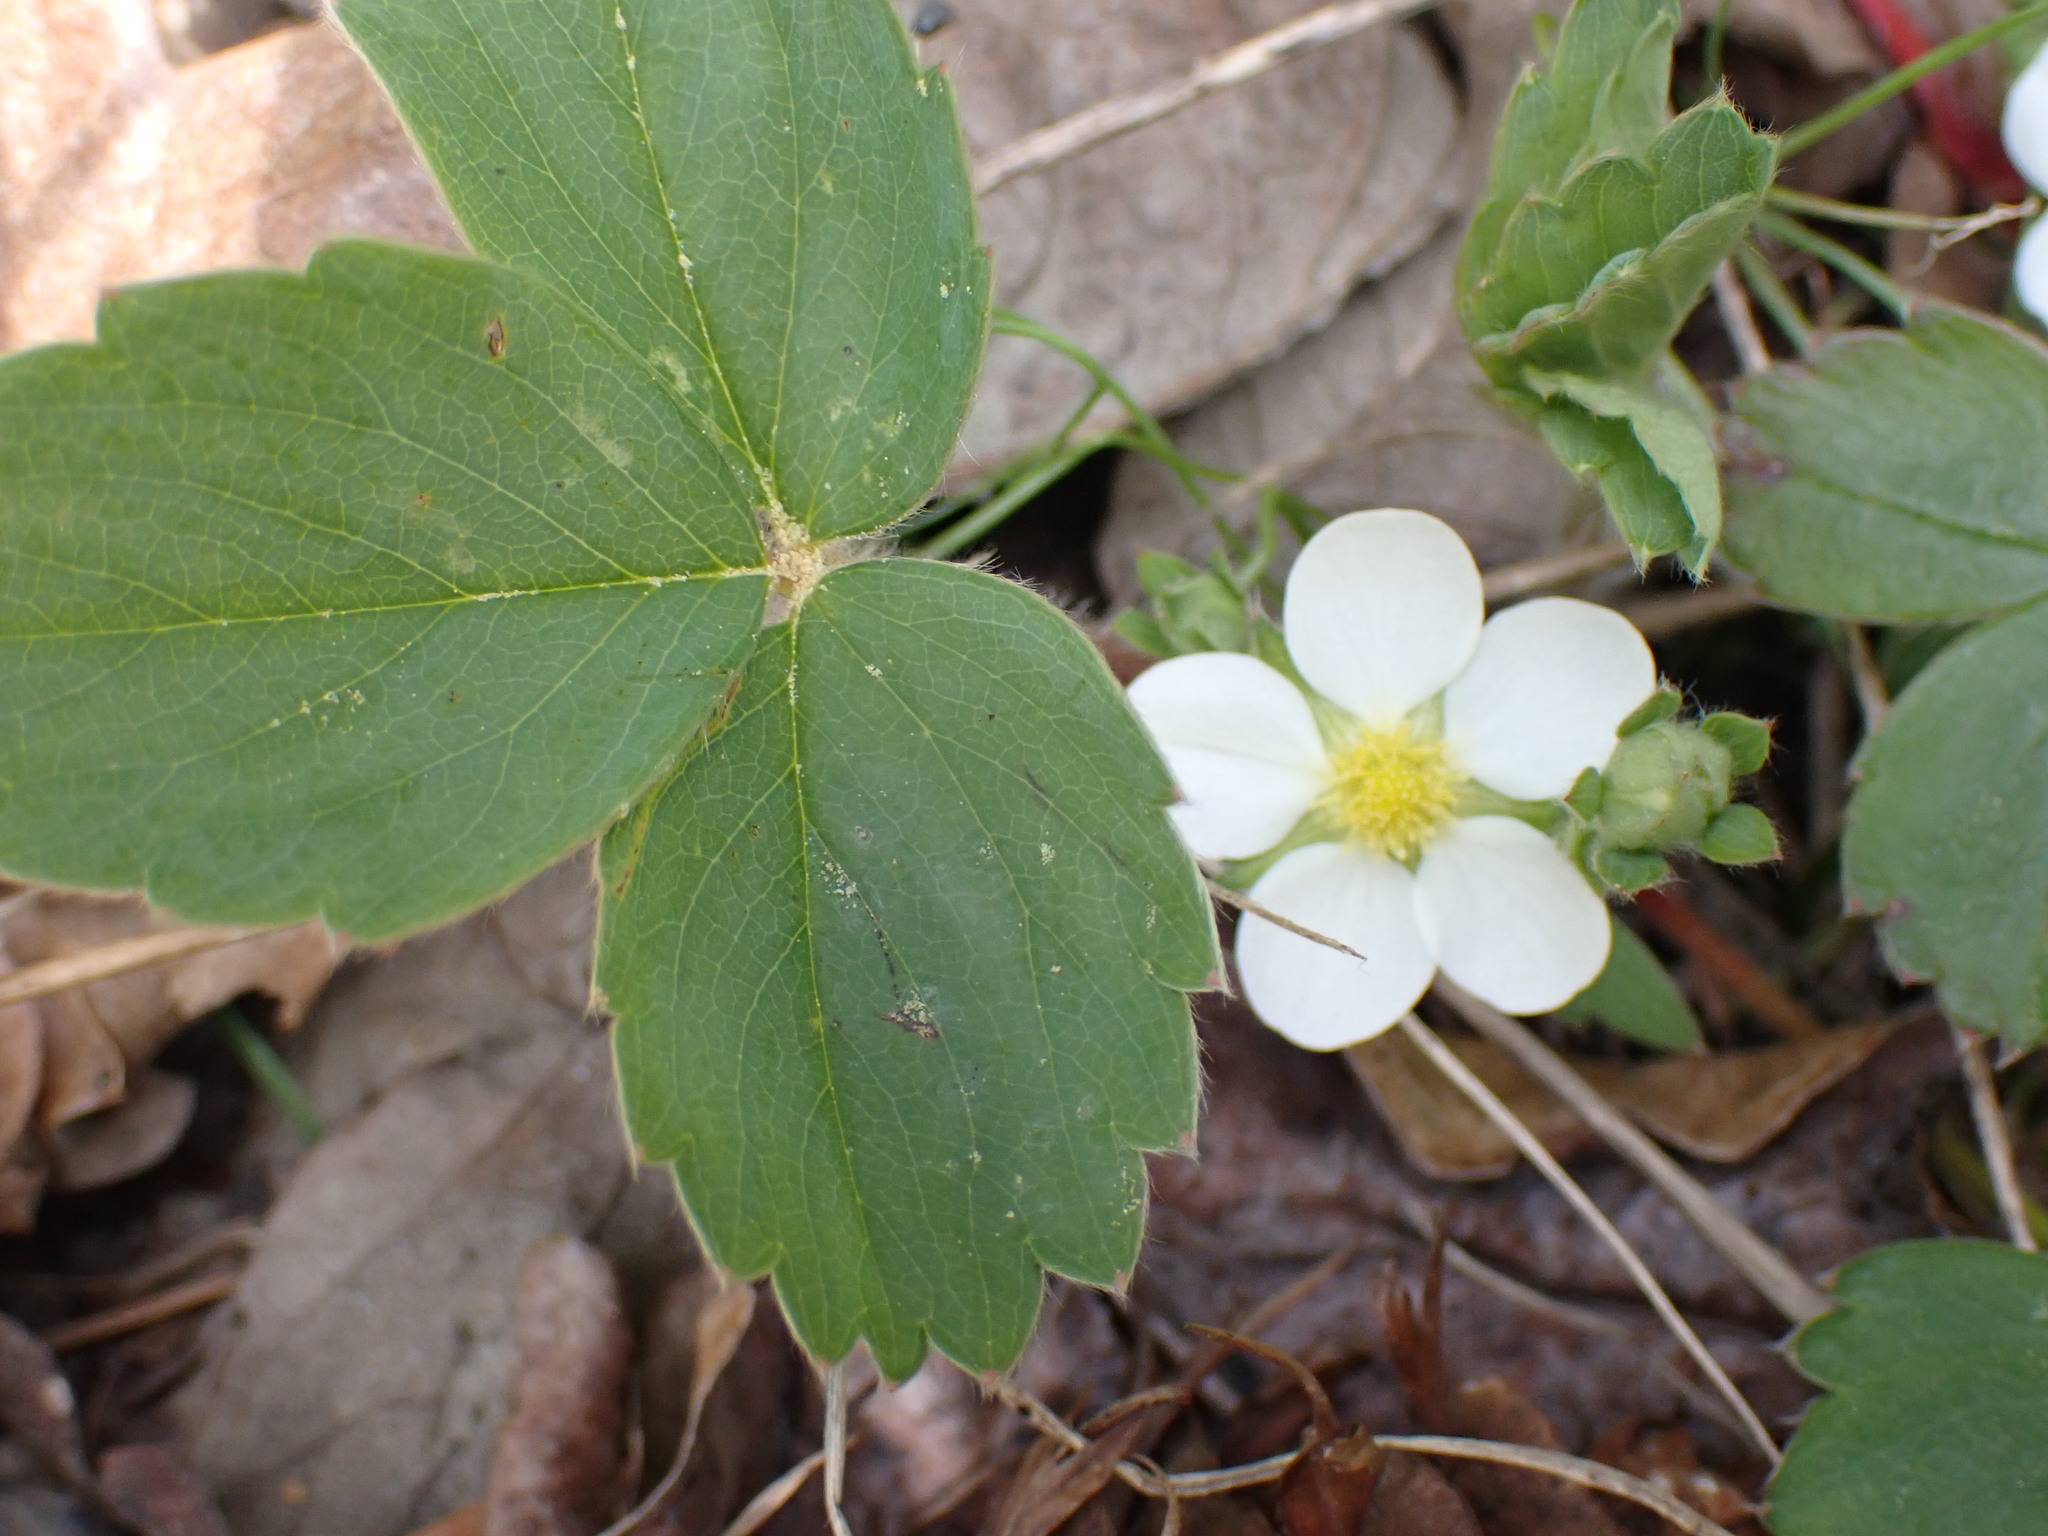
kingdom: Plantae
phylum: Tracheophyta
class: Magnoliopsida
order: Rosales
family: Rosaceae
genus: Fragaria
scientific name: Fragaria virginiana
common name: Thickleaved wild strawberry
